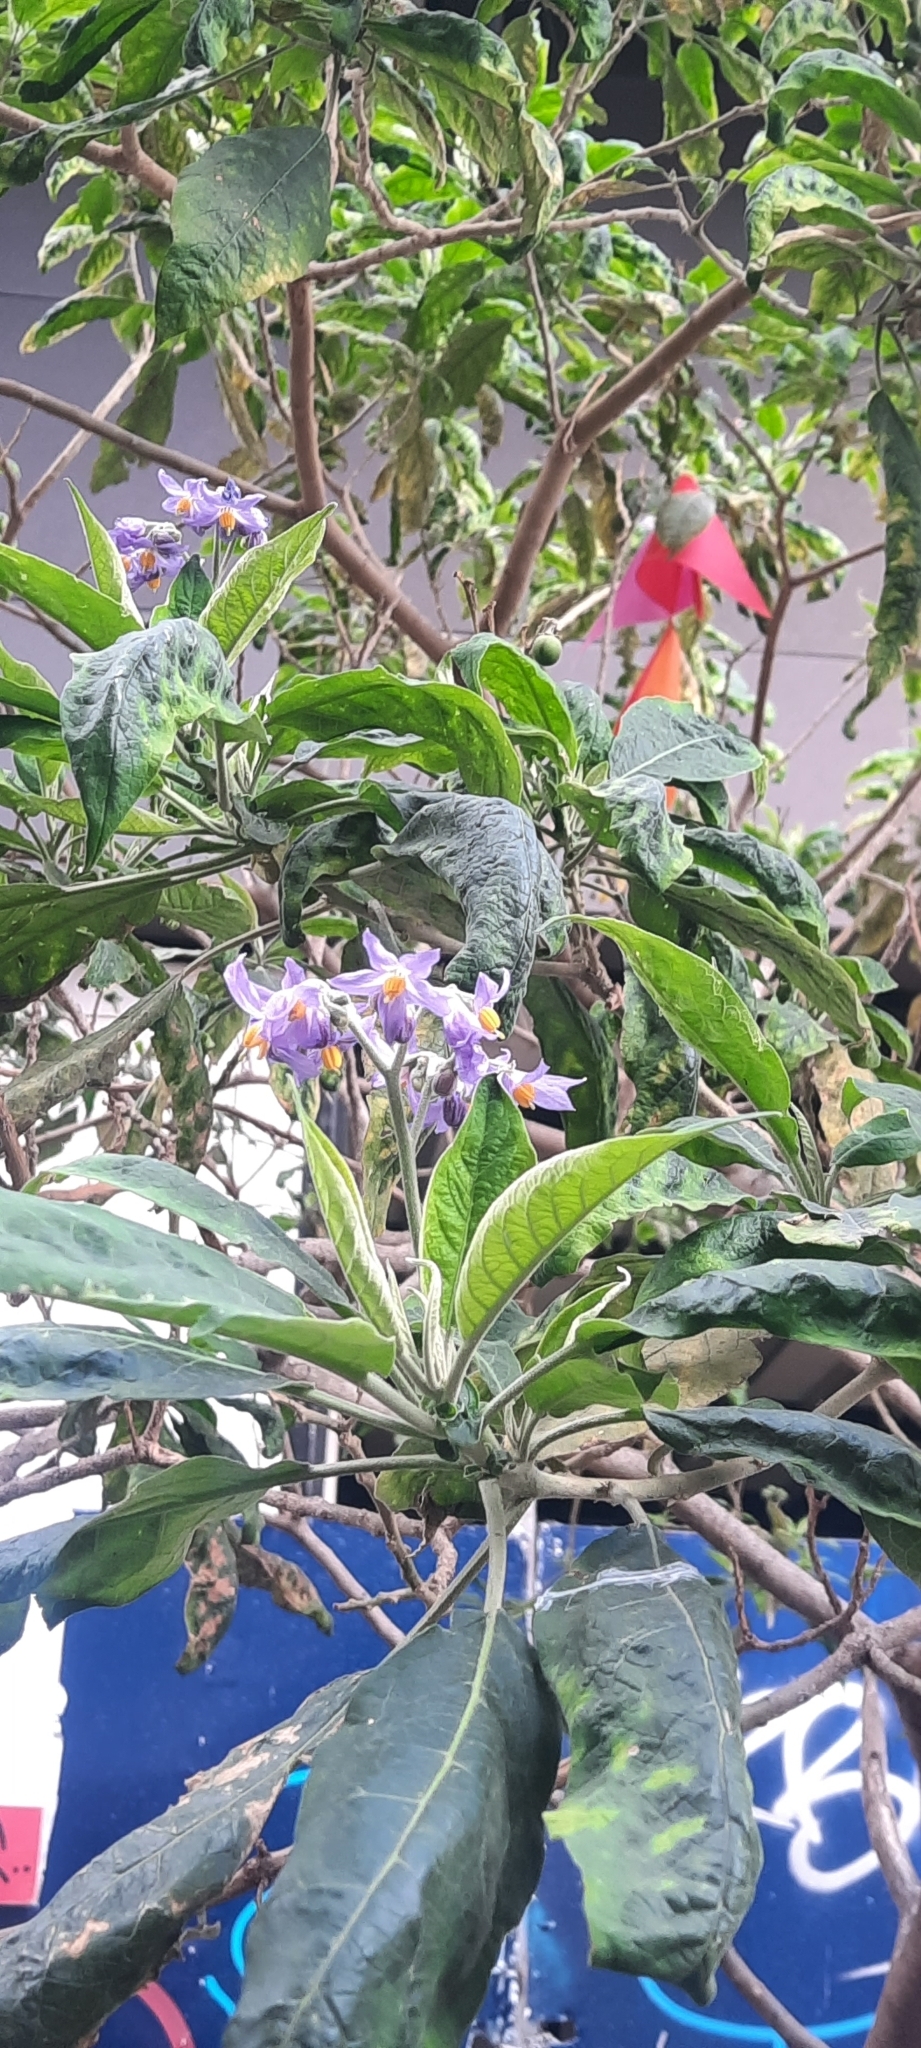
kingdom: Plantae
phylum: Tracheophyta
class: Magnoliopsida
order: Solanales
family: Solanaceae
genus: Solanum
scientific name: Solanum granulosoleprosum
